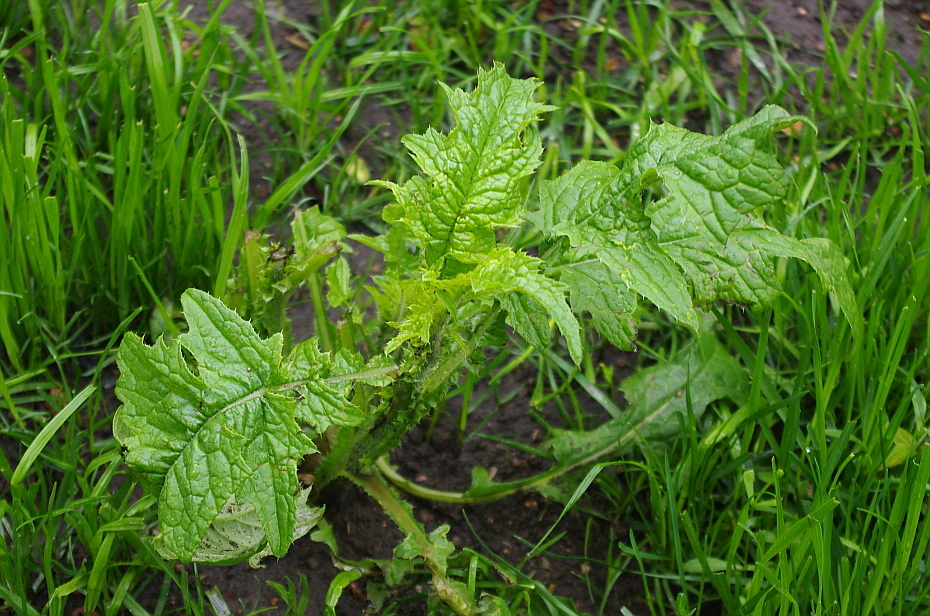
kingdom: Plantae
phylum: Tracheophyta
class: Magnoliopsida
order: Asterales
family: Asteraceae
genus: Carduus
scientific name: Carduus crispus
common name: Welted thistle
